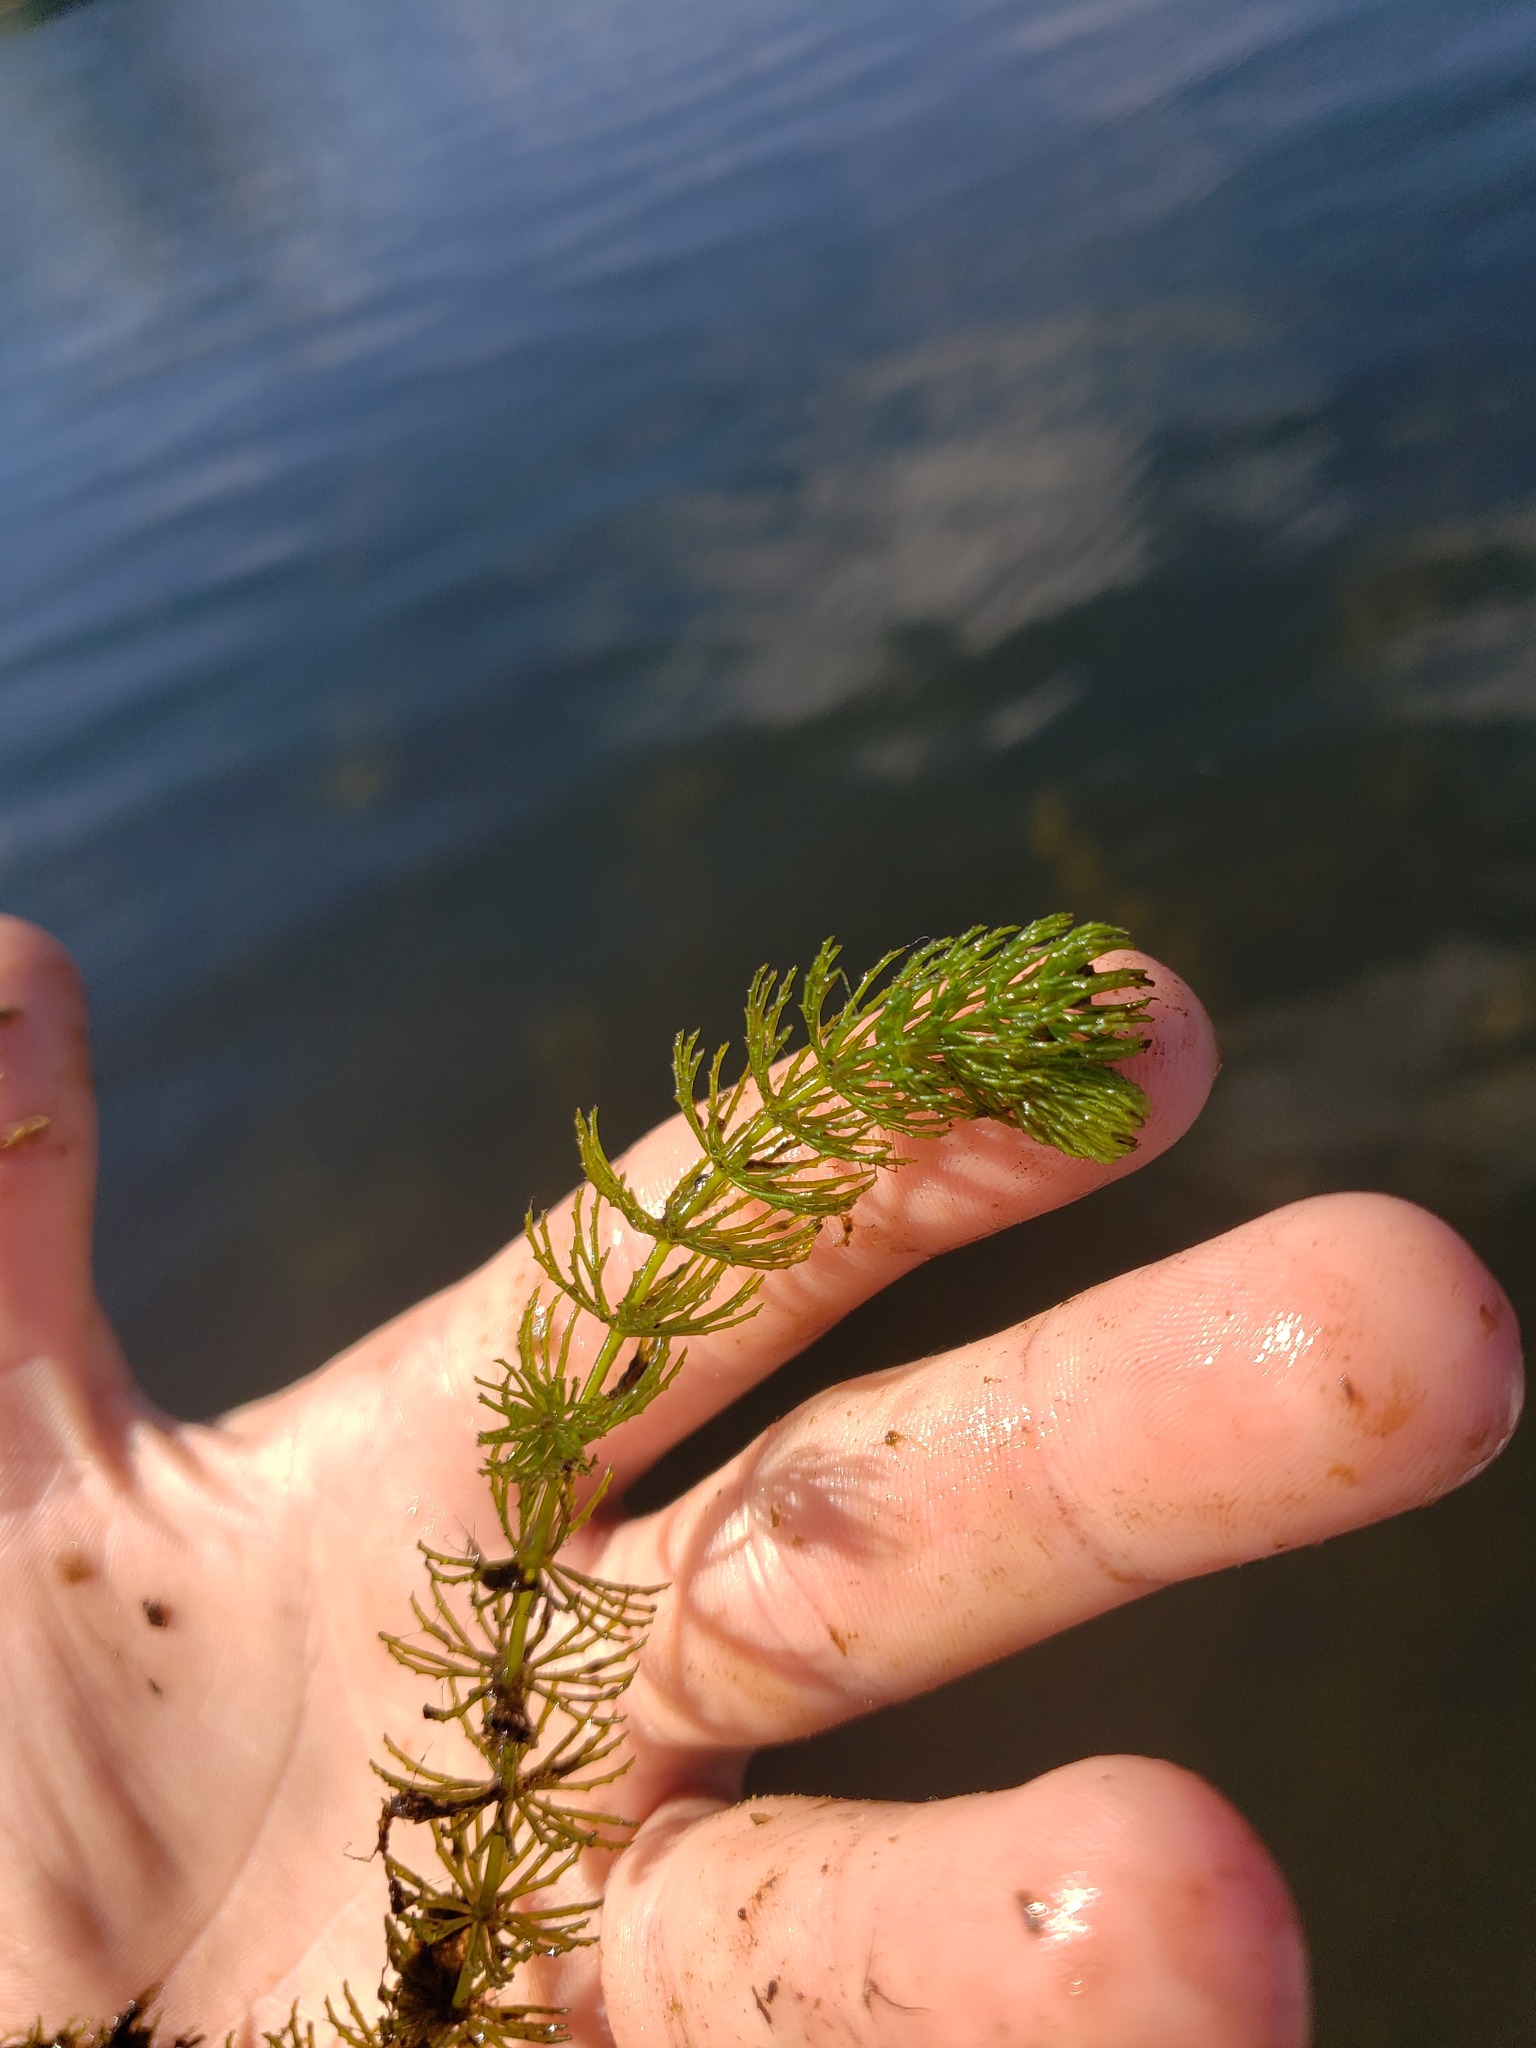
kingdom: Plantae
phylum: Tracheophyta
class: Magnoliopsida
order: Ceratophyllales
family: Ceratophyllaceae
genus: Ceratophyllum
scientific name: Ceratophyllum demersum
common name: Rigid hornwort
